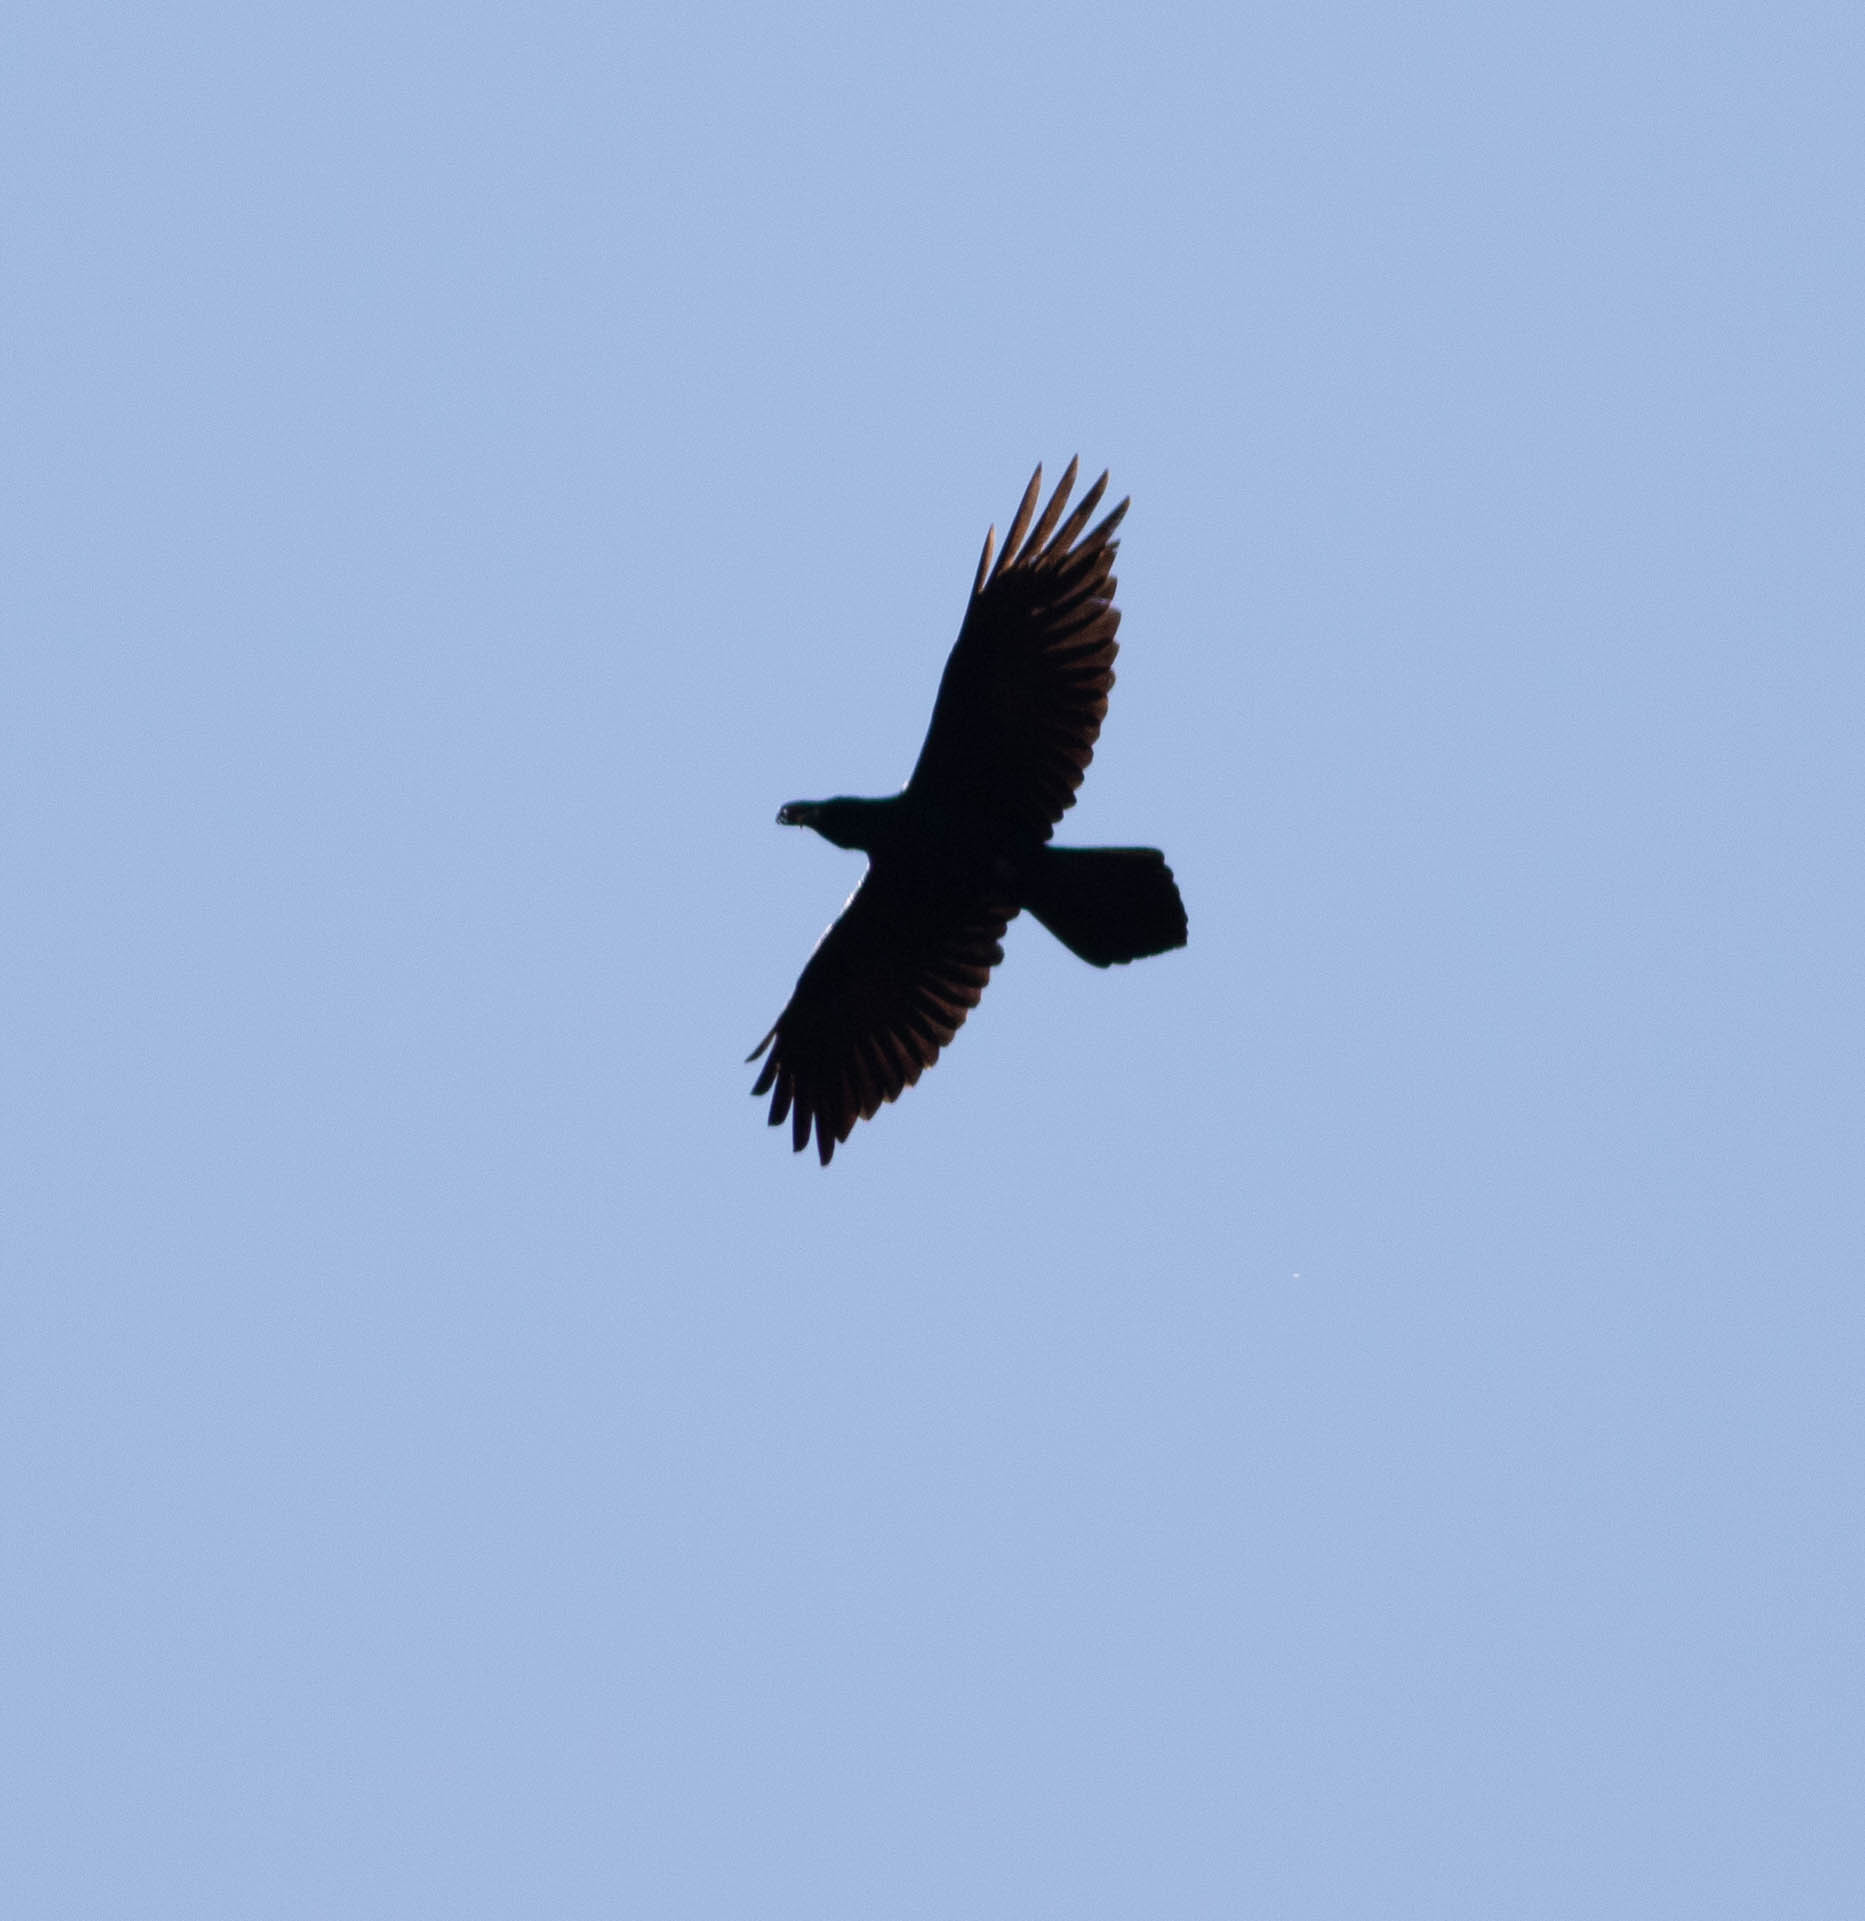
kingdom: Animalia
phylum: Chordata
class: Aves
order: Passeriformes
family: Corvidae
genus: Corvus
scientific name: Corvus corax
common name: Common raven
